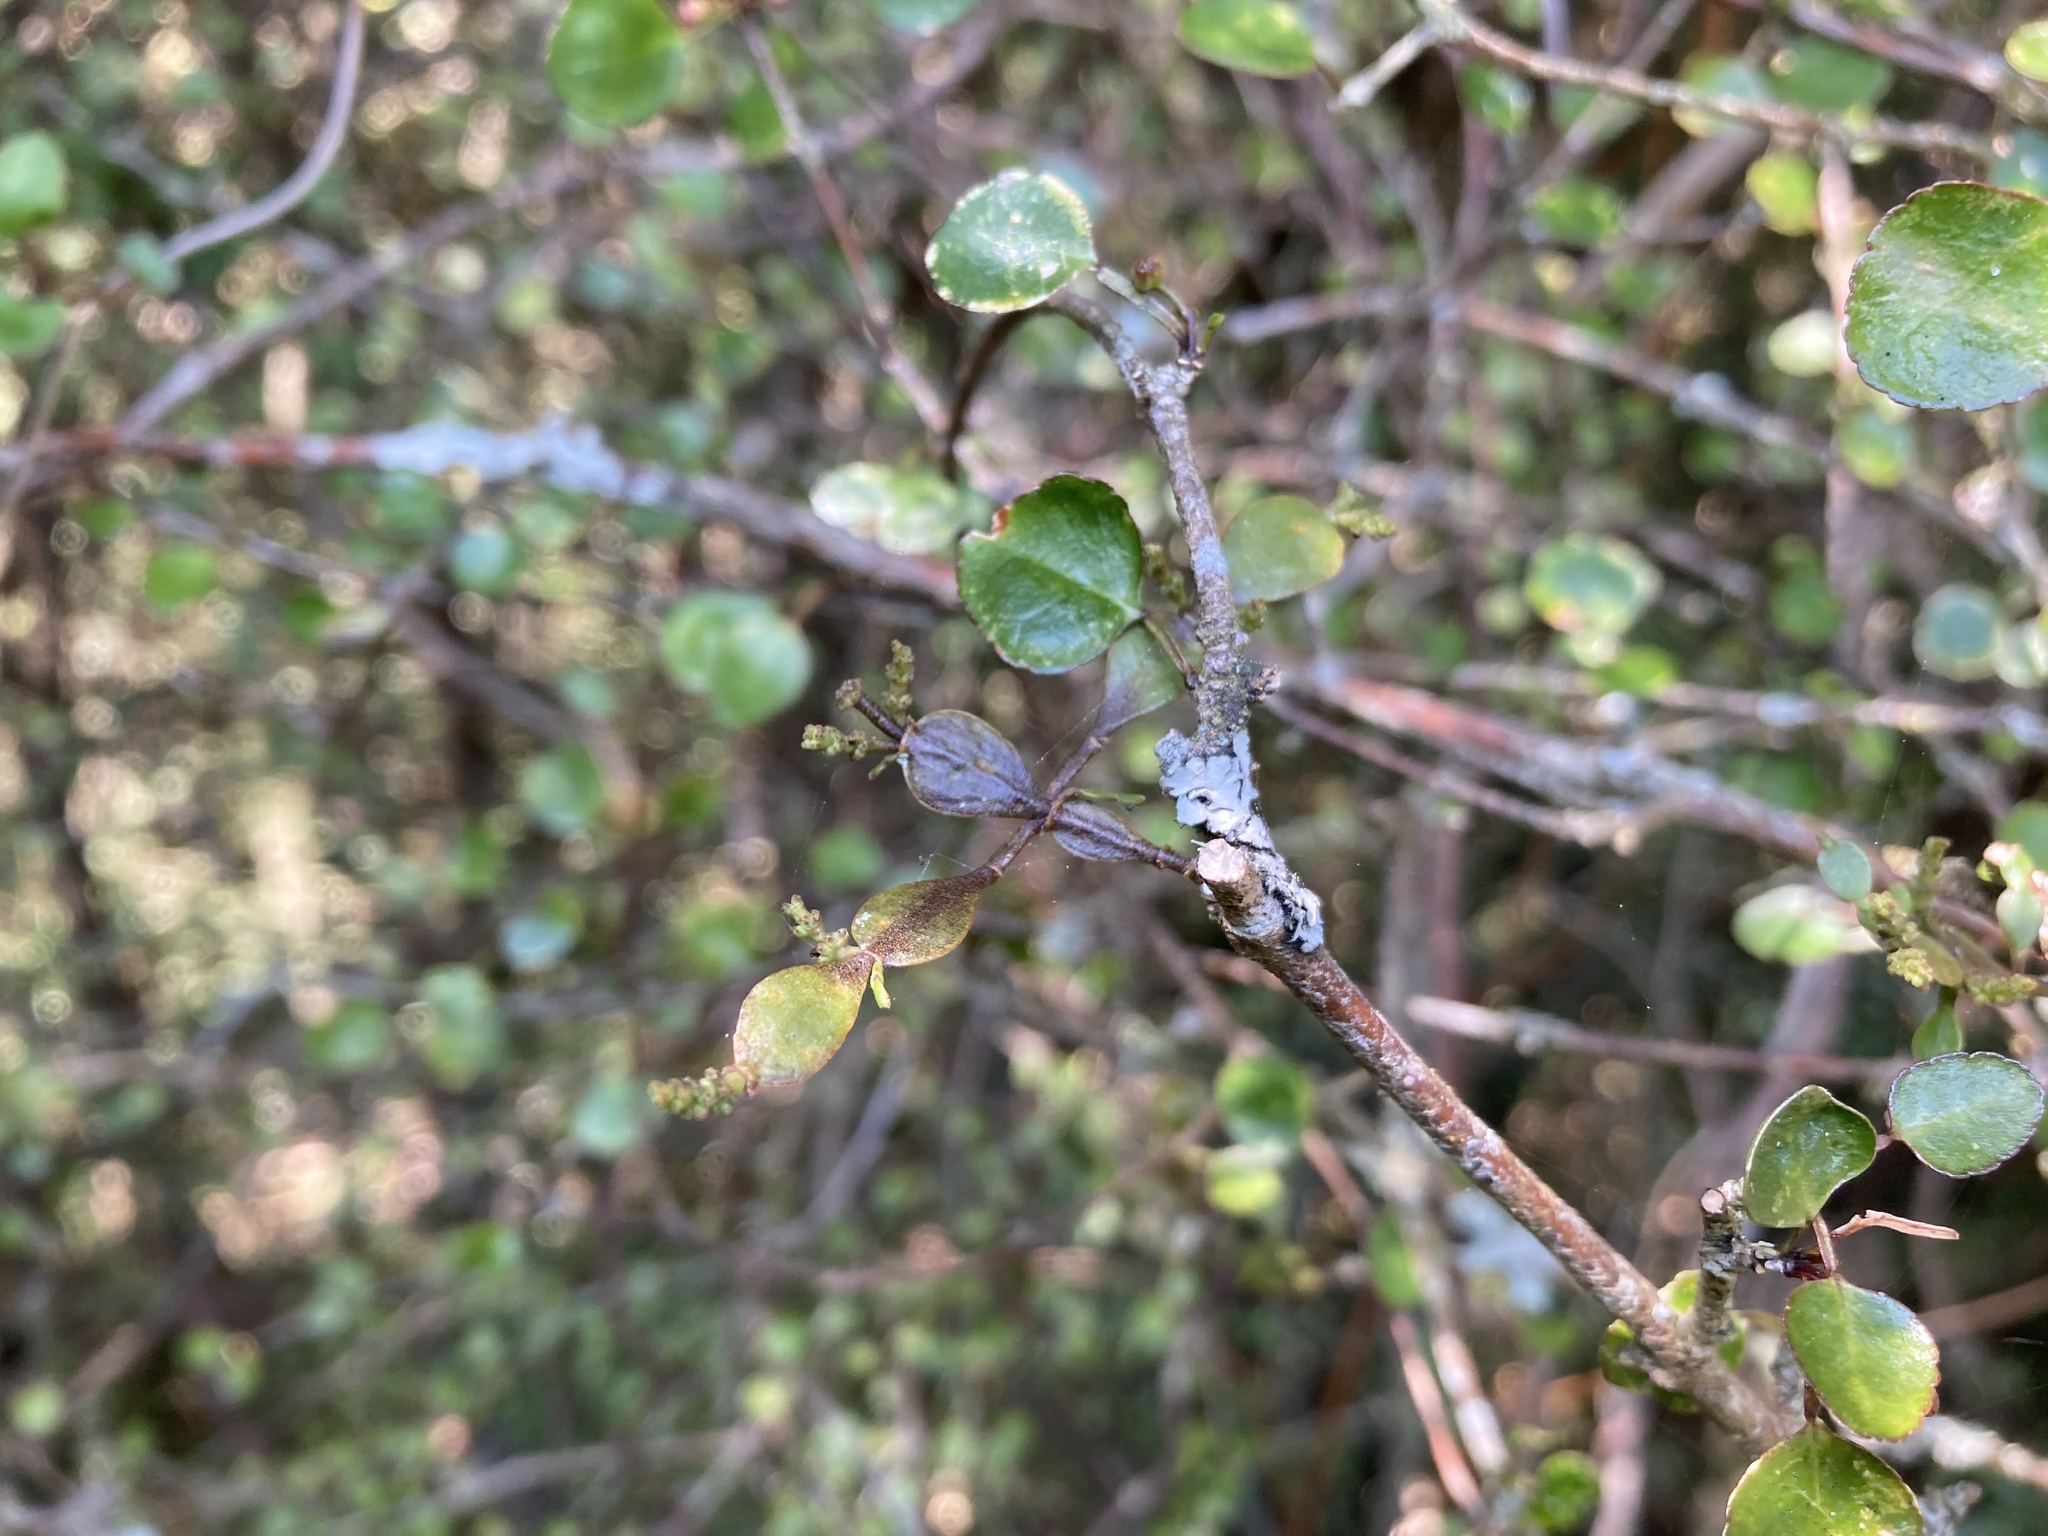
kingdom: Plantae
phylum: Tracheophyta
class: Magnoliopsida
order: Santalales
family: Viscaceae
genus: Korthalsella
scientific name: Korthalsella lindsayi
